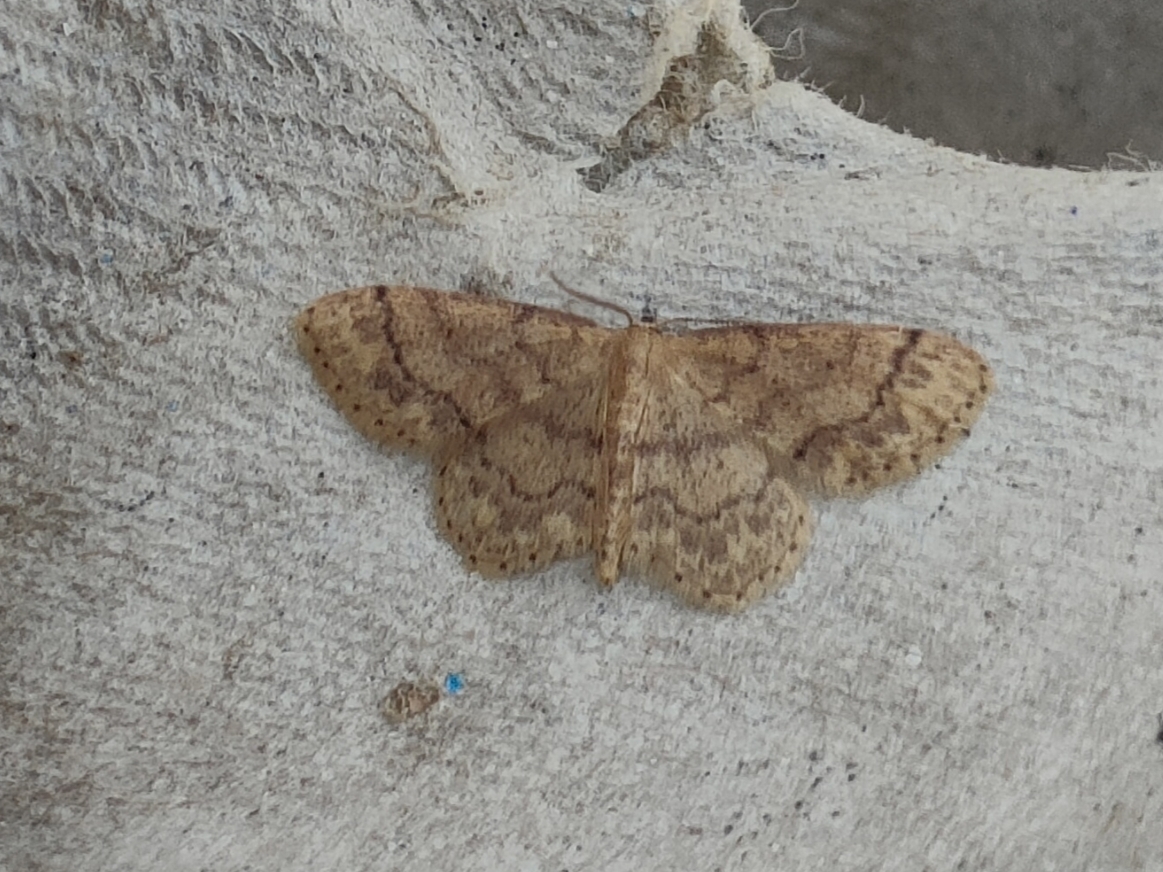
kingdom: Animalia
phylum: Arthropoda
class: Insecta
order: Lepidoptera
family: Geometridae
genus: Idaea
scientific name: Idaea subsaturata
